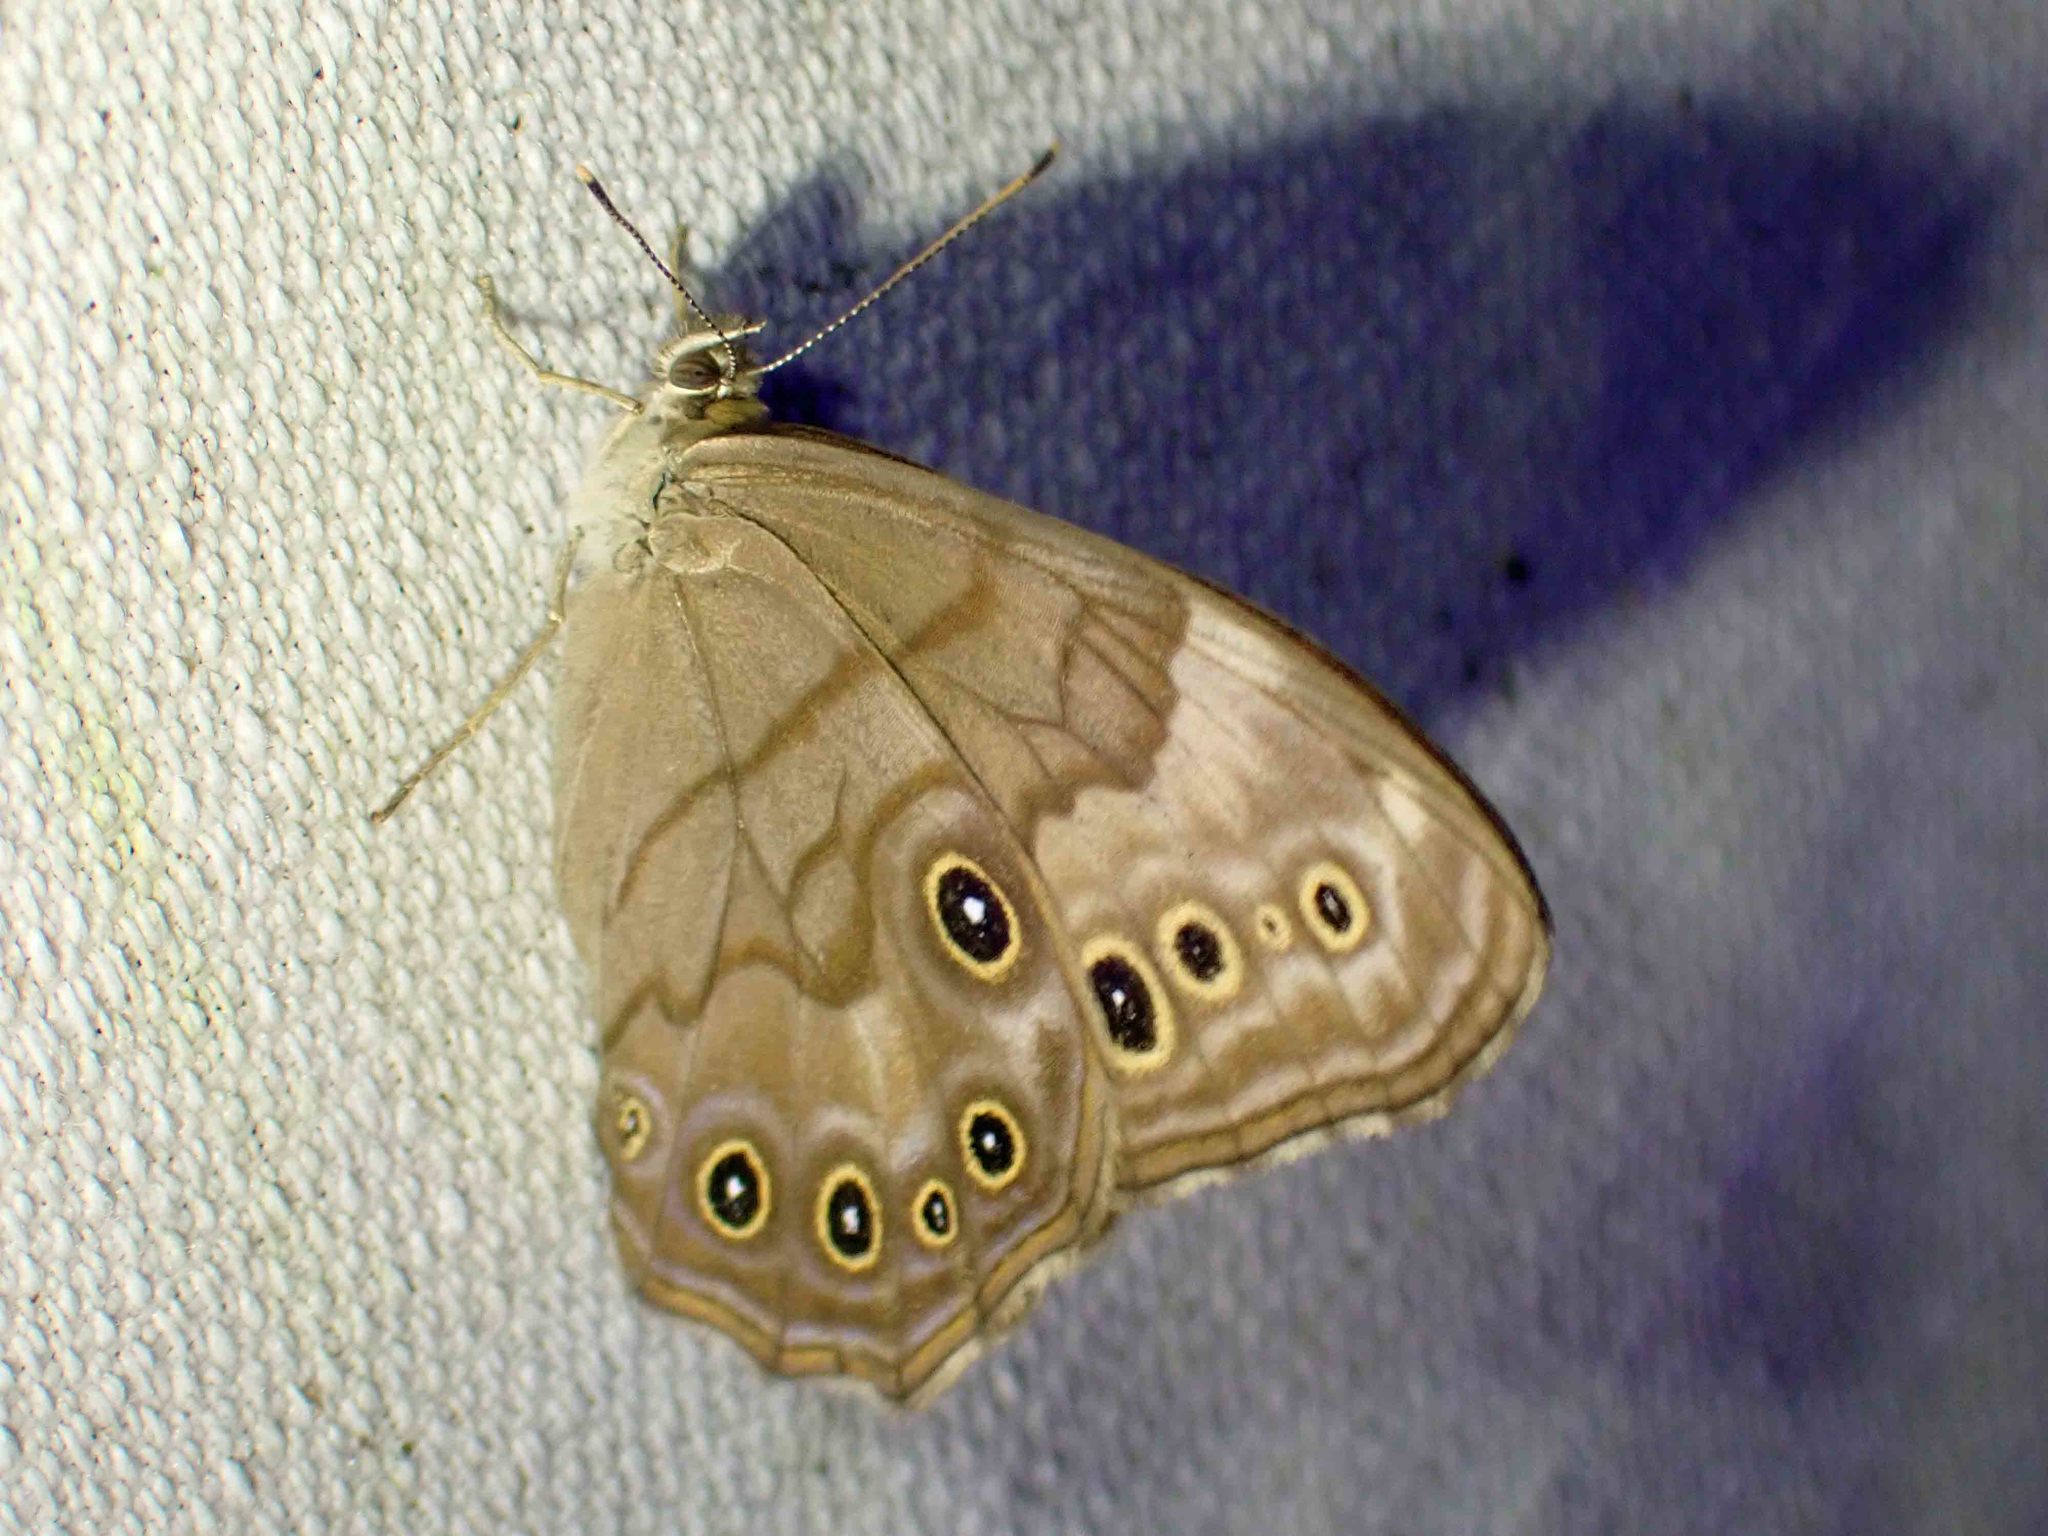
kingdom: Animalia
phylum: Arthropoda
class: Insecta
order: Lepidoptera
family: Nymphalidae
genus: Lethe
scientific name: Lethe anthedon
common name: Northern pearly-eye
